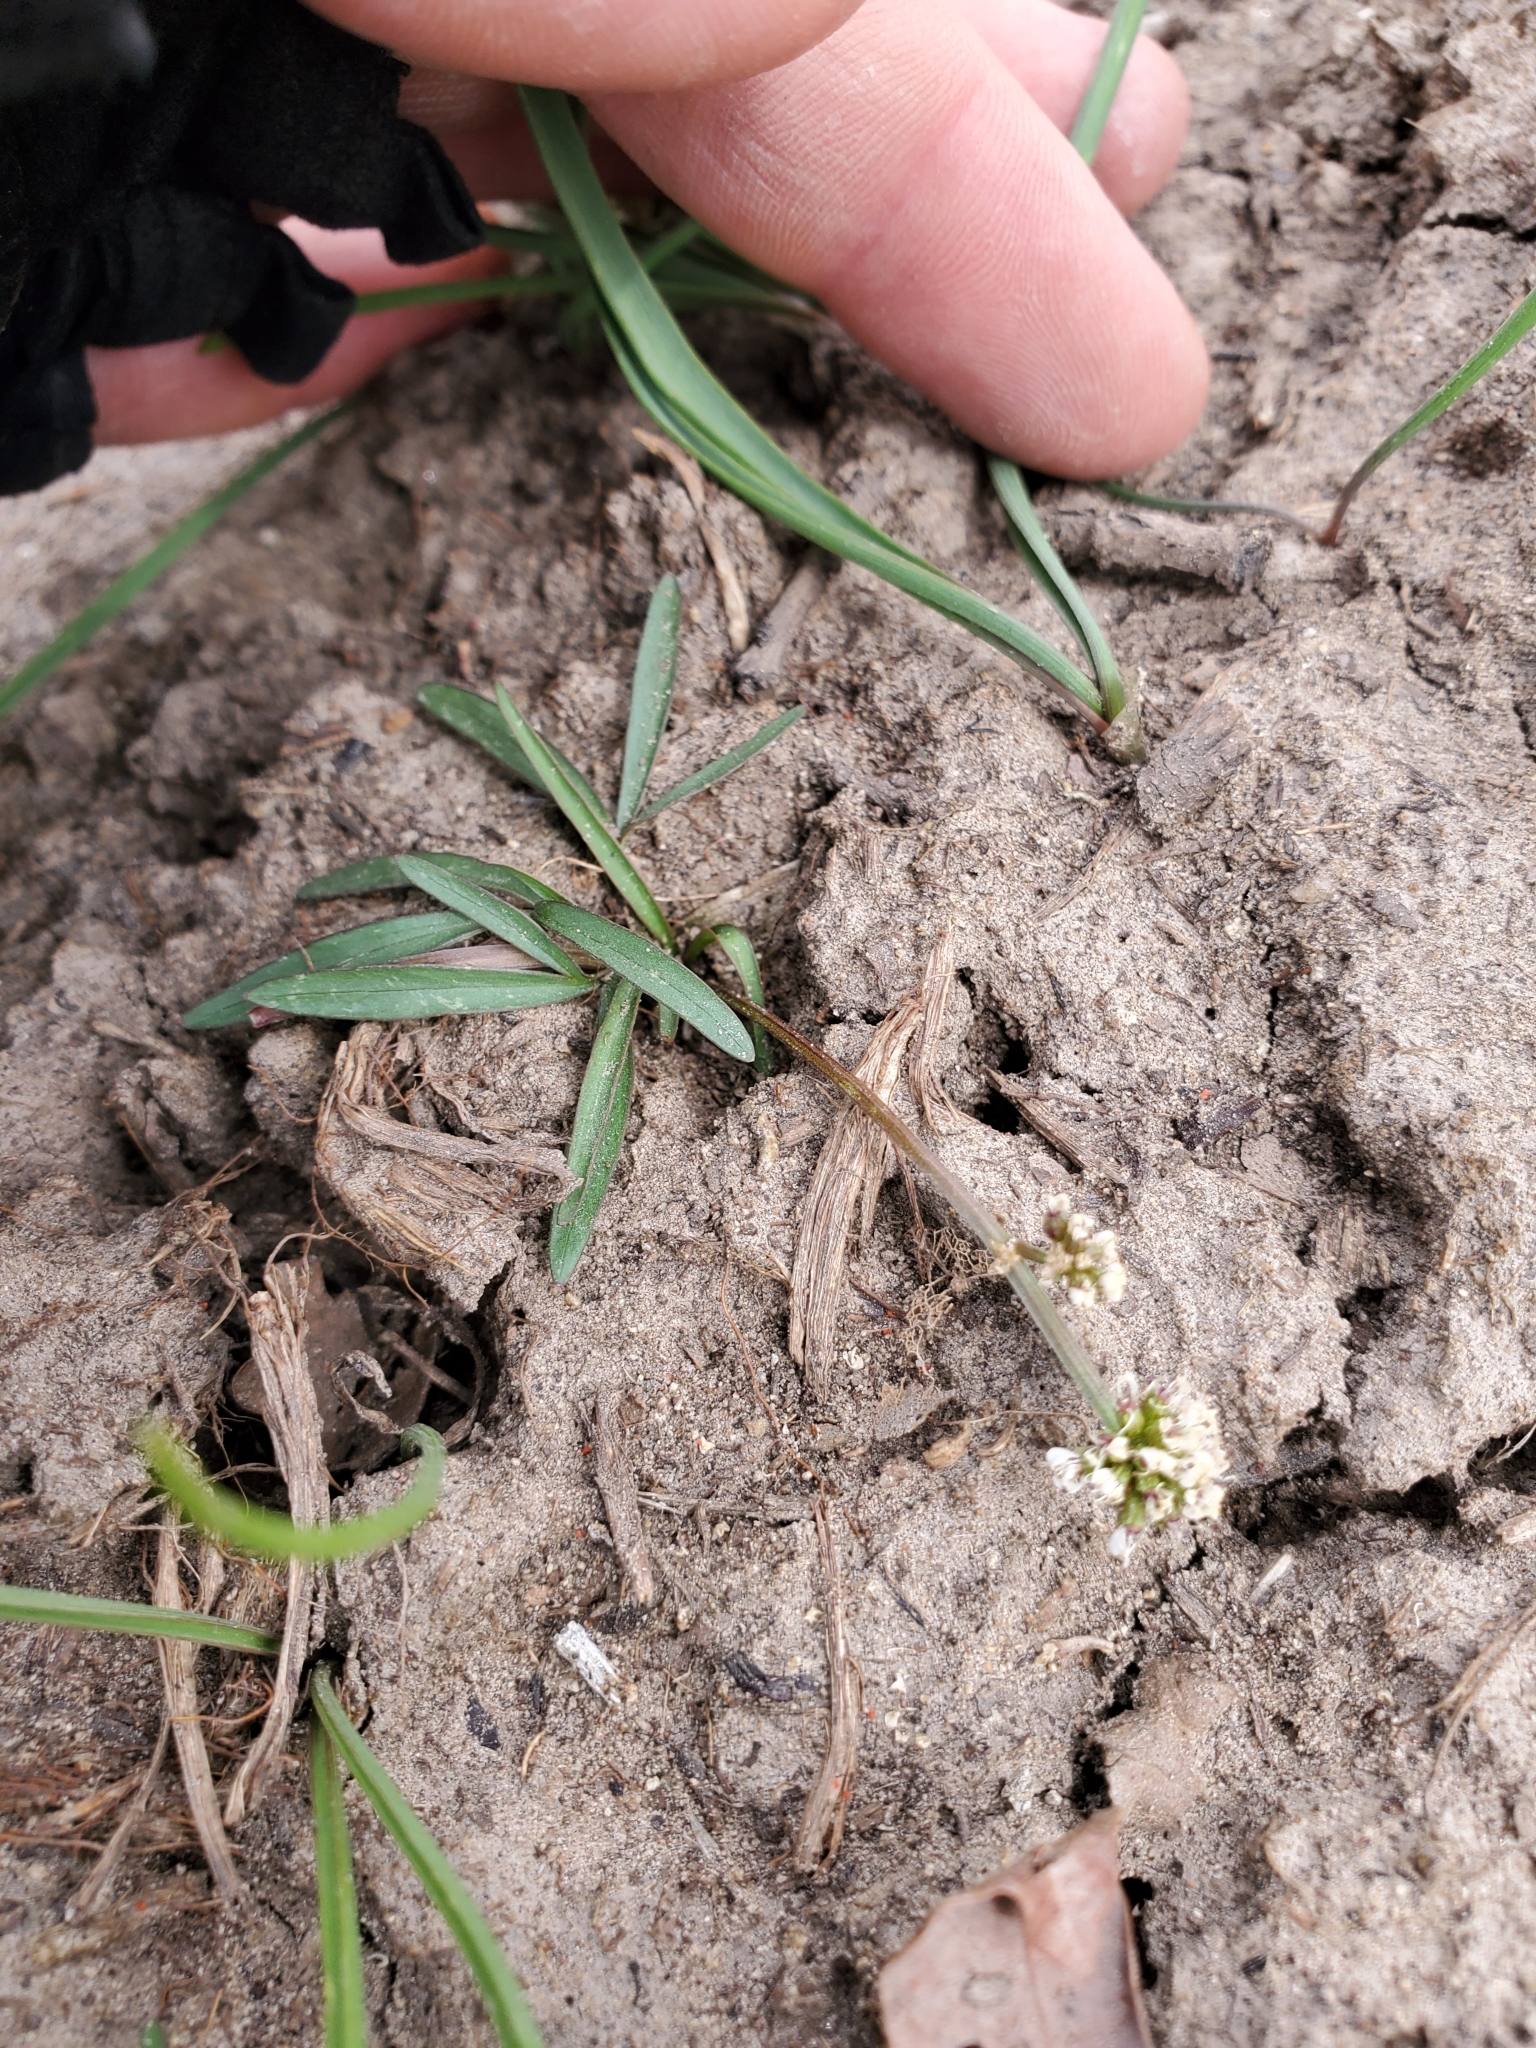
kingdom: Plantae
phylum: Tracheophyta
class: Magnoliopsida
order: Apiales
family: Apiaceae
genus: Lomatium
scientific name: Lomatium linearifolium
